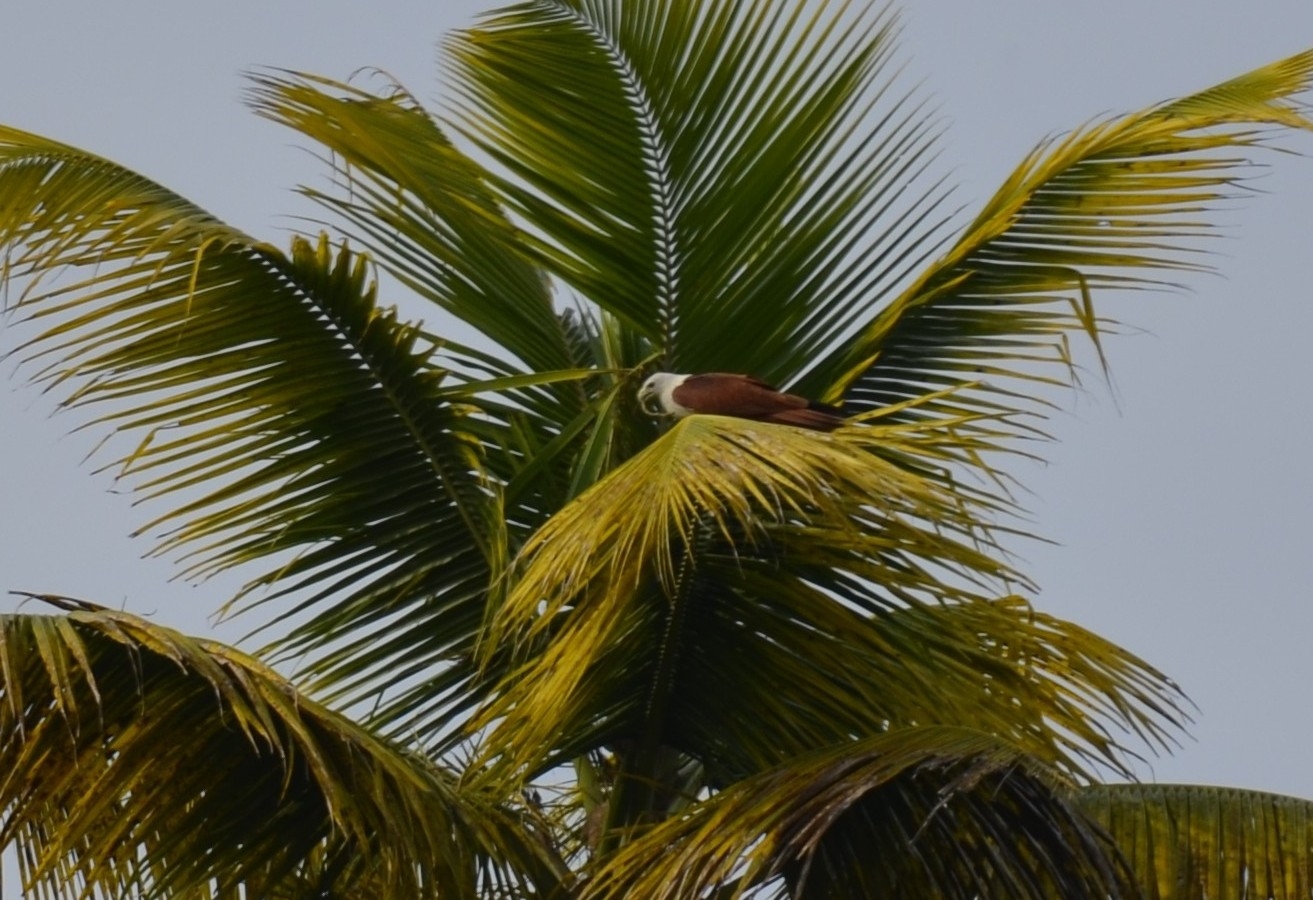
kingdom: Animalia
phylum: Chordata
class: Aves
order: Accipitriformes
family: Accipitridae
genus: Haliastur
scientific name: Haliastur indus
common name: Brahminy kite
